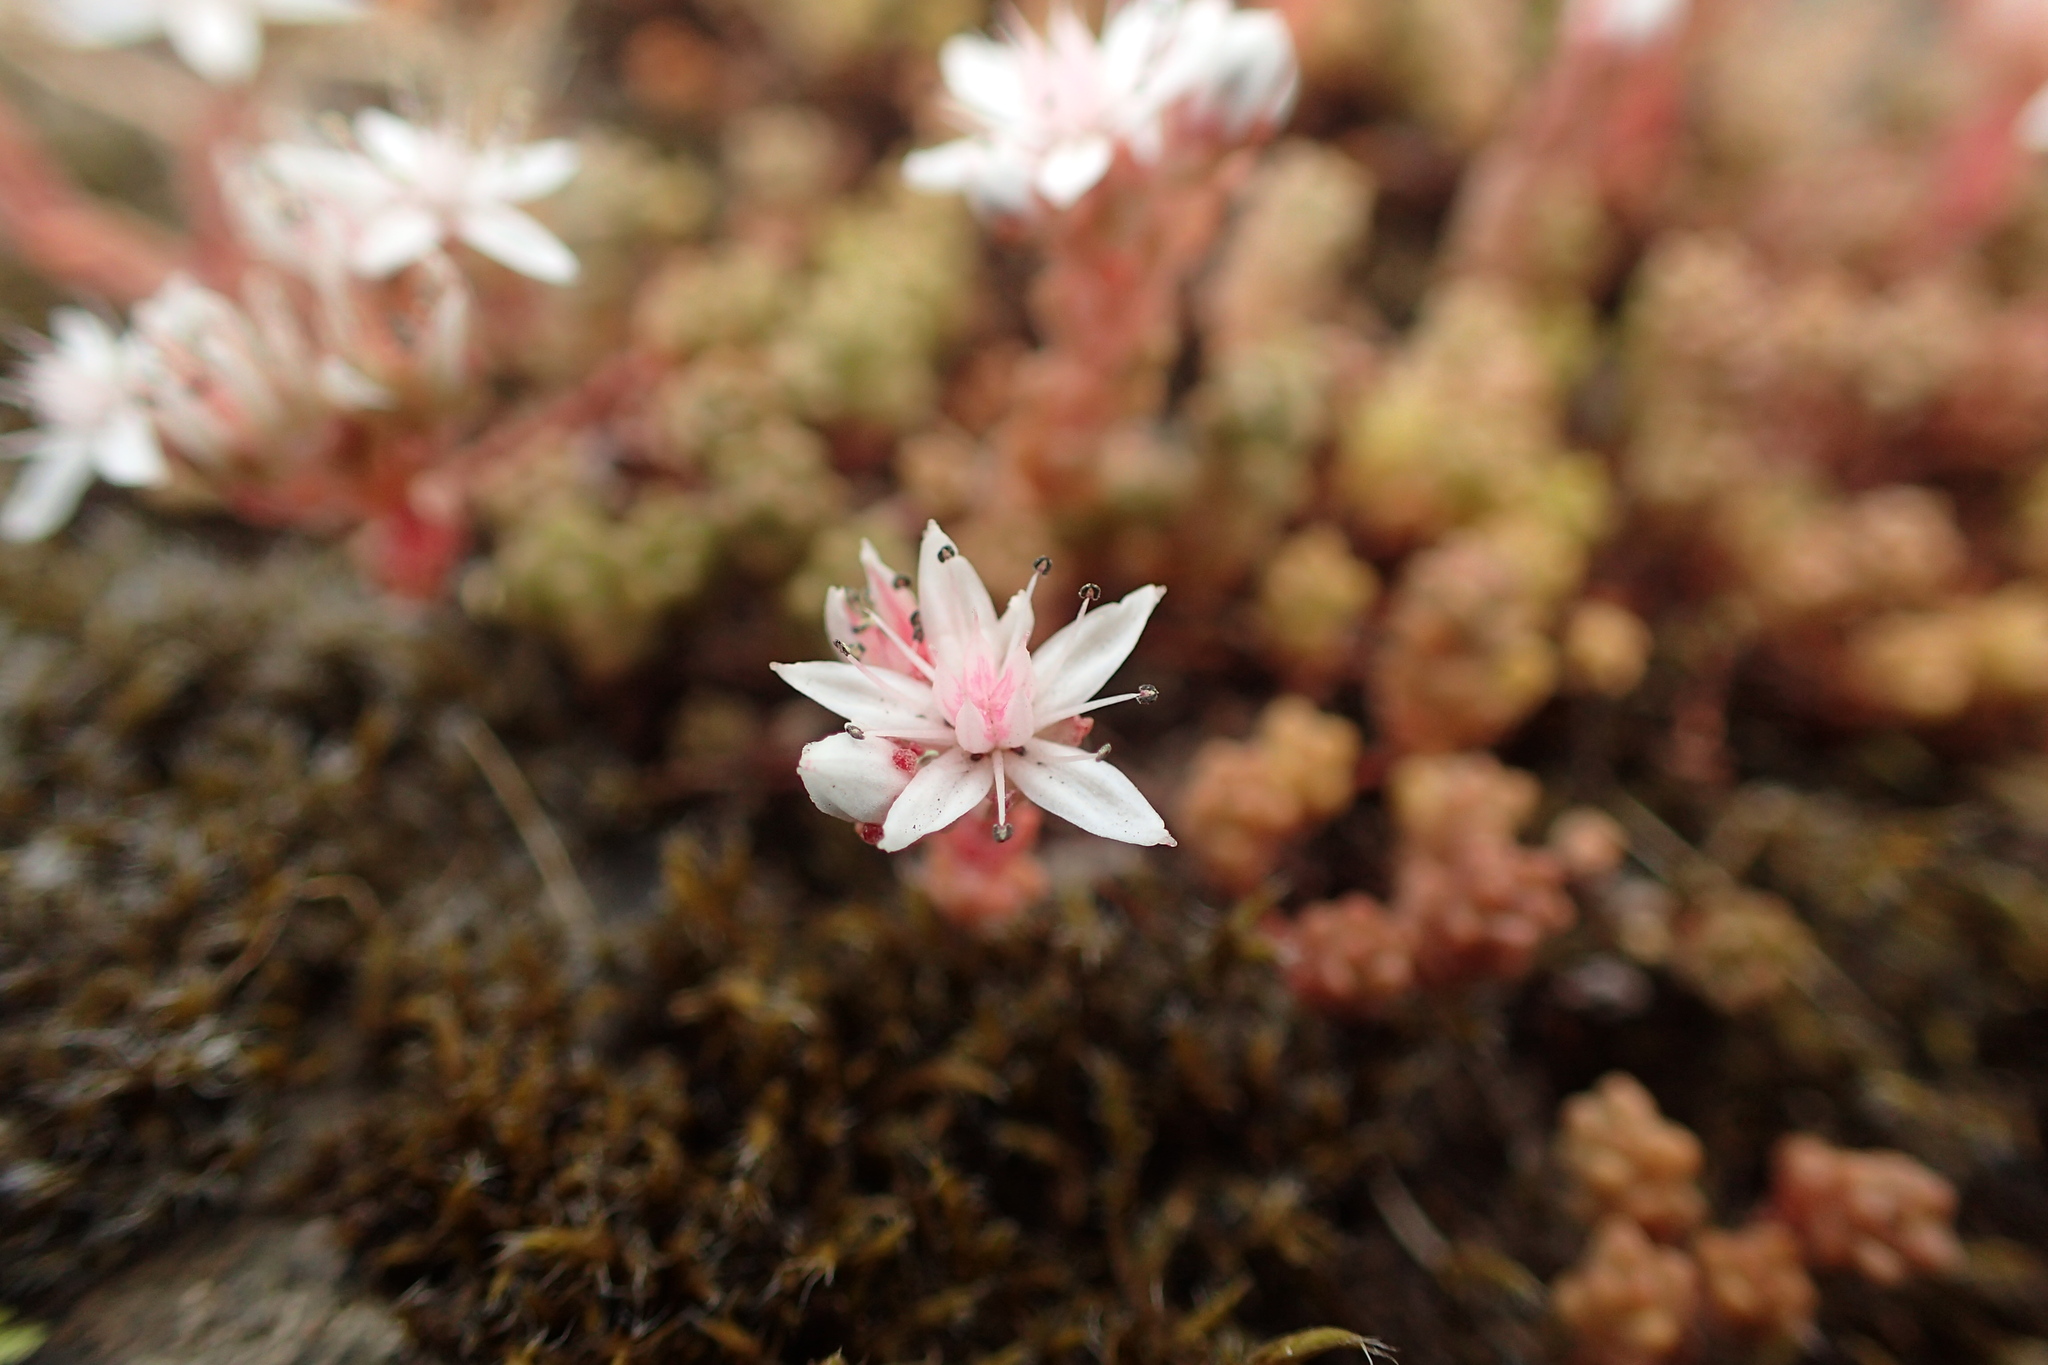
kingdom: Plantae
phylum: Tracheophyta
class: Magnoliopsida
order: Saxifragales
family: Crassulaceae
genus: Sedum
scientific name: Sedum anglicum
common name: English stonecrop
